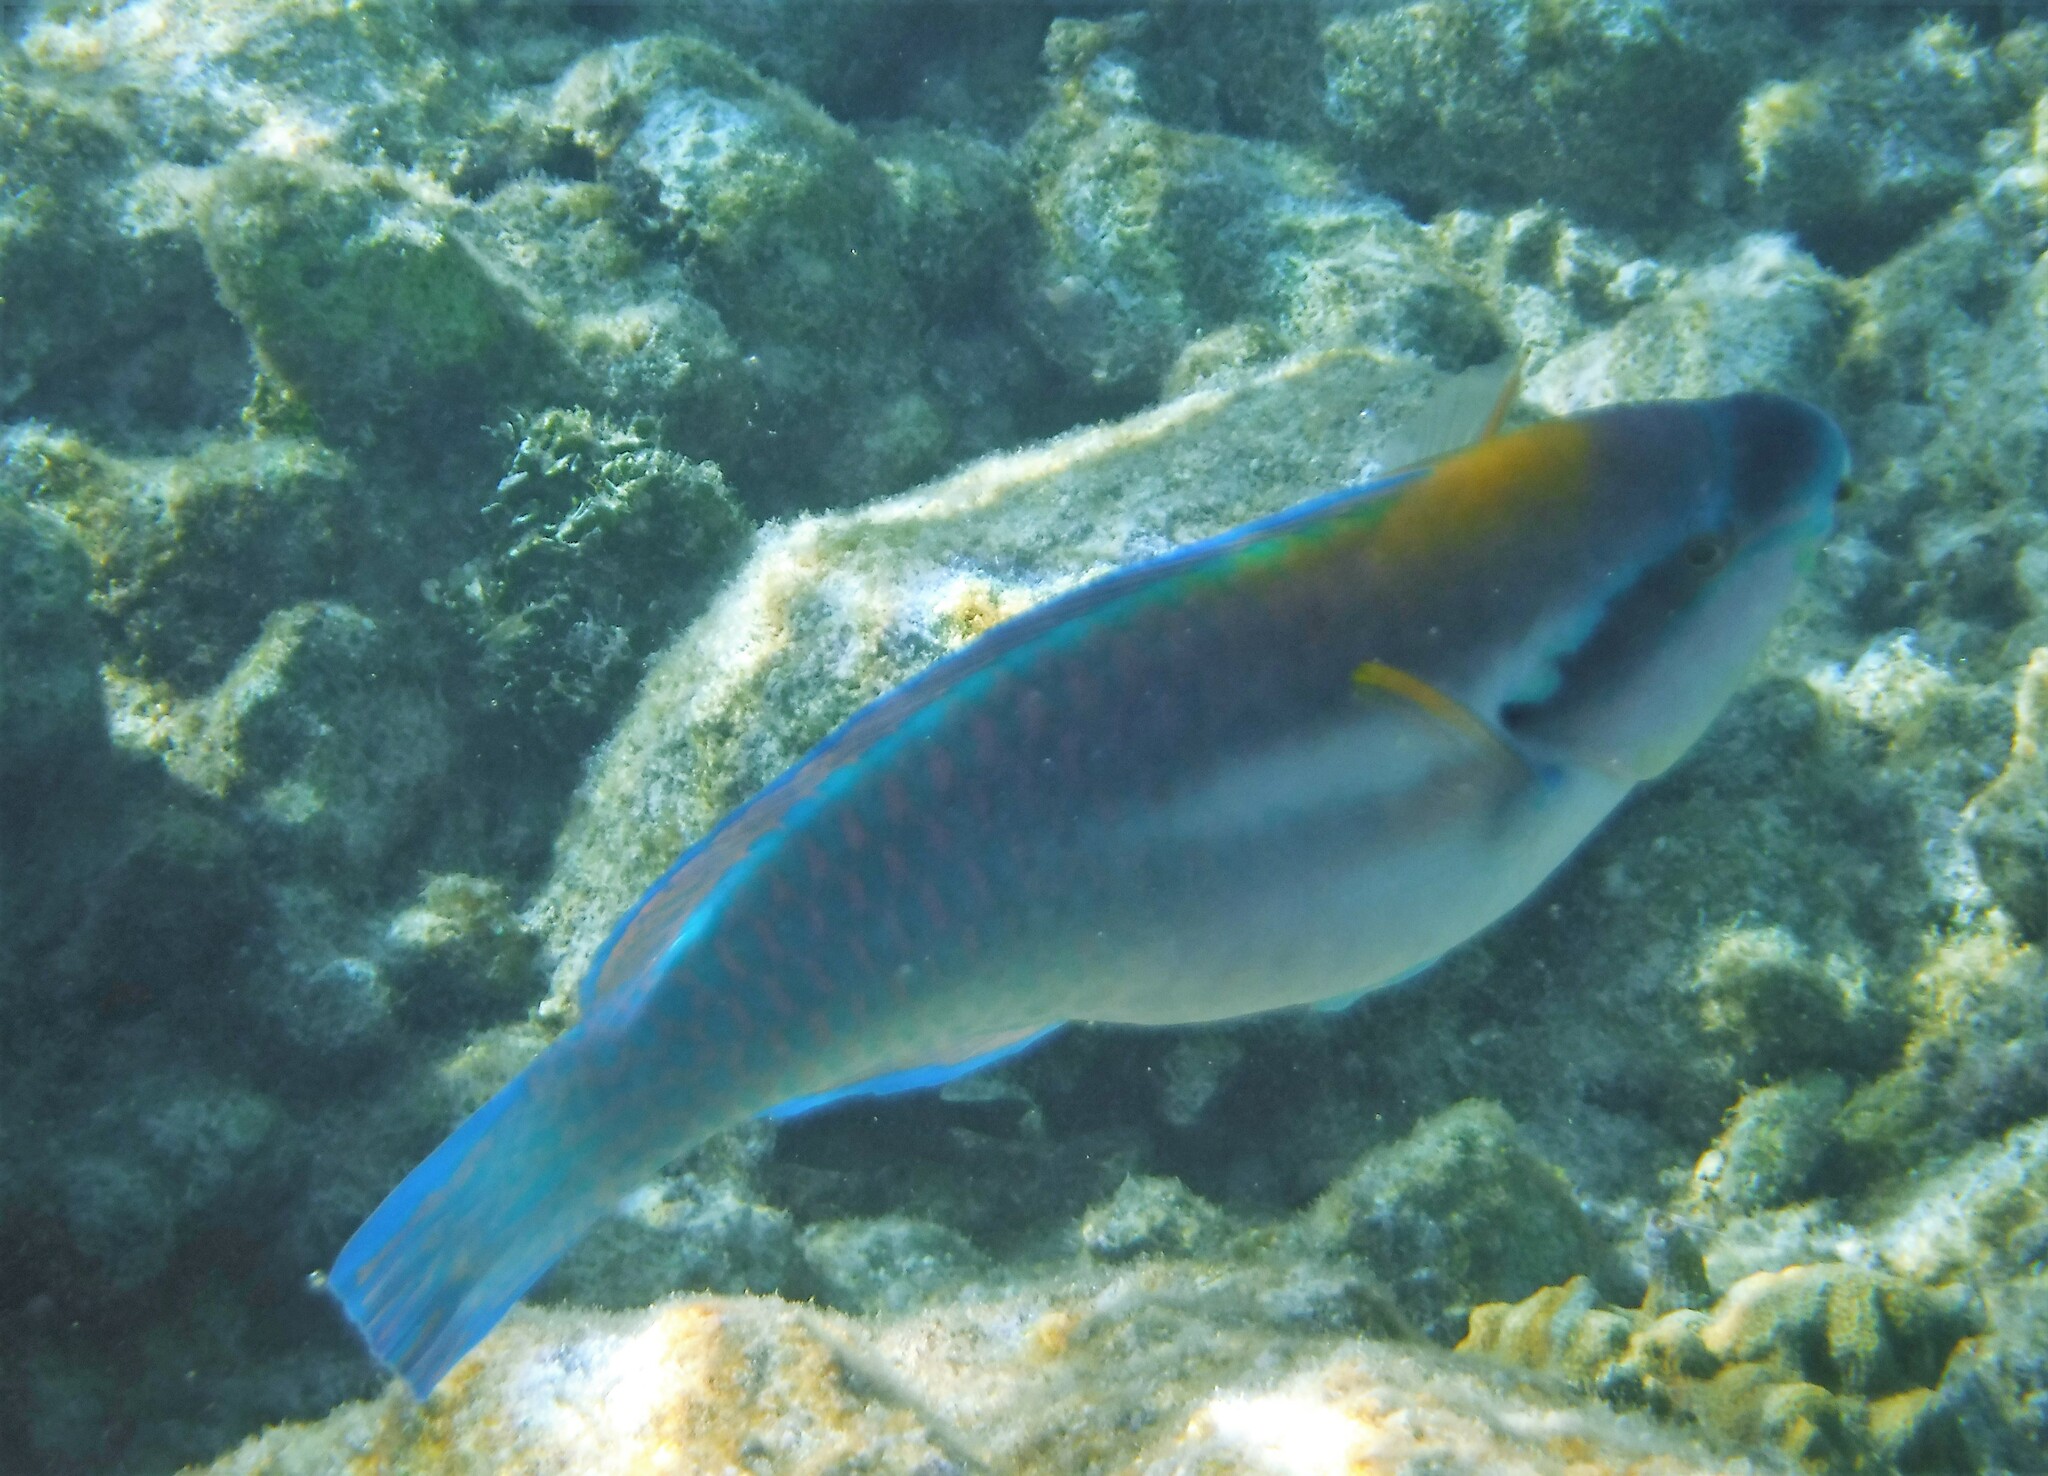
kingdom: Animalia
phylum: Chordata
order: Perciformes
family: Scaridae
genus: Scarus
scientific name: Scarus iseri
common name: Striped parrotfish
